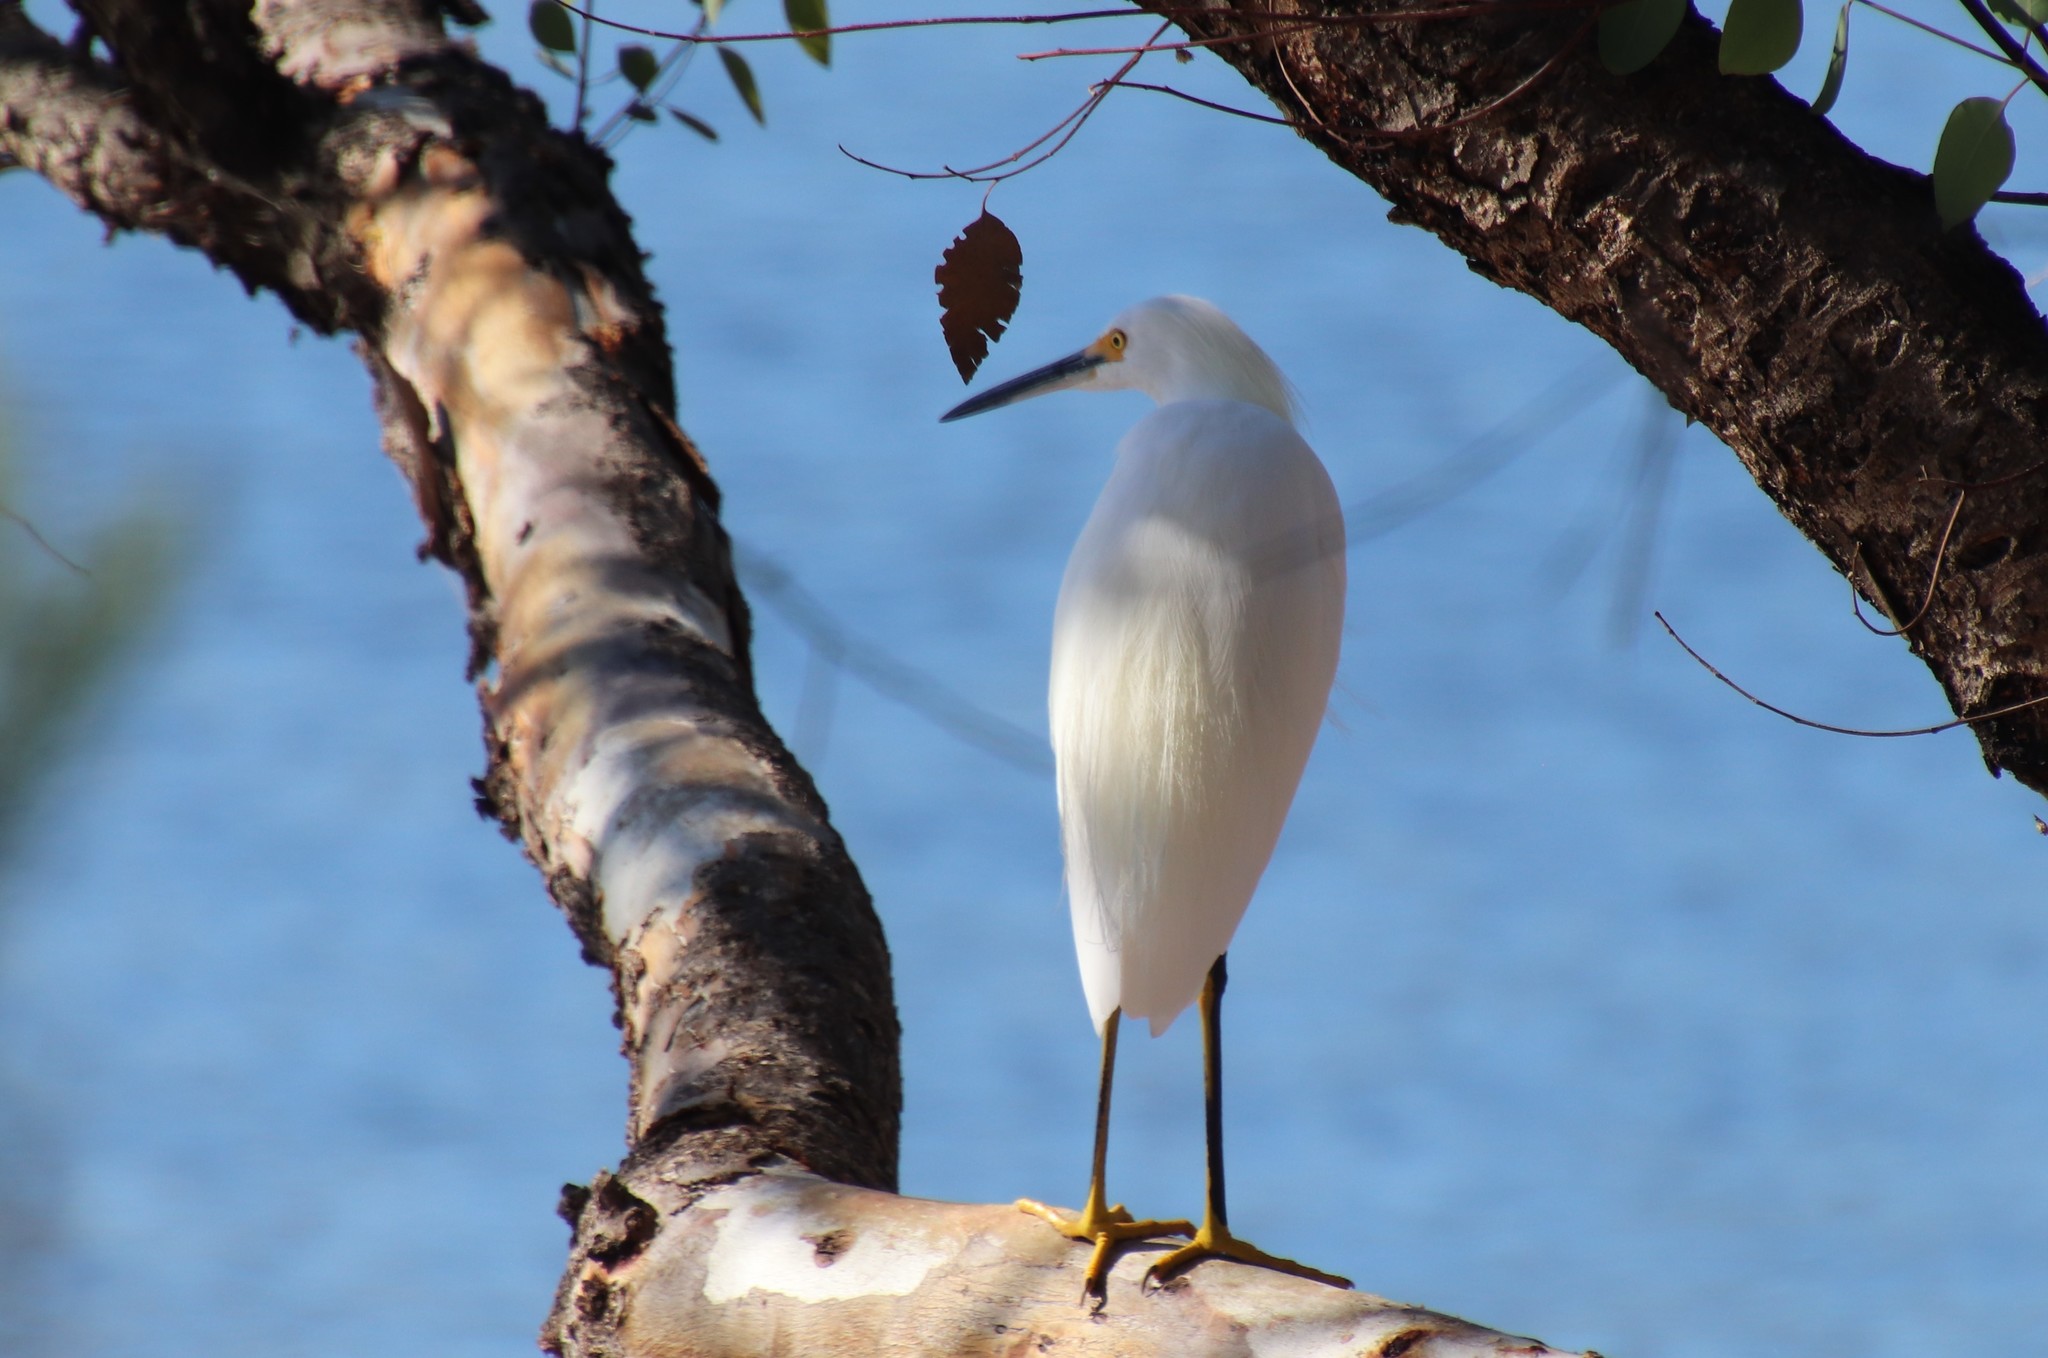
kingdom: Animalia
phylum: Chordata
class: Aves
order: Pelecaniformes
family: Ardeidae
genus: Egretta
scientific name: Egretta thula
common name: Snowy egret
